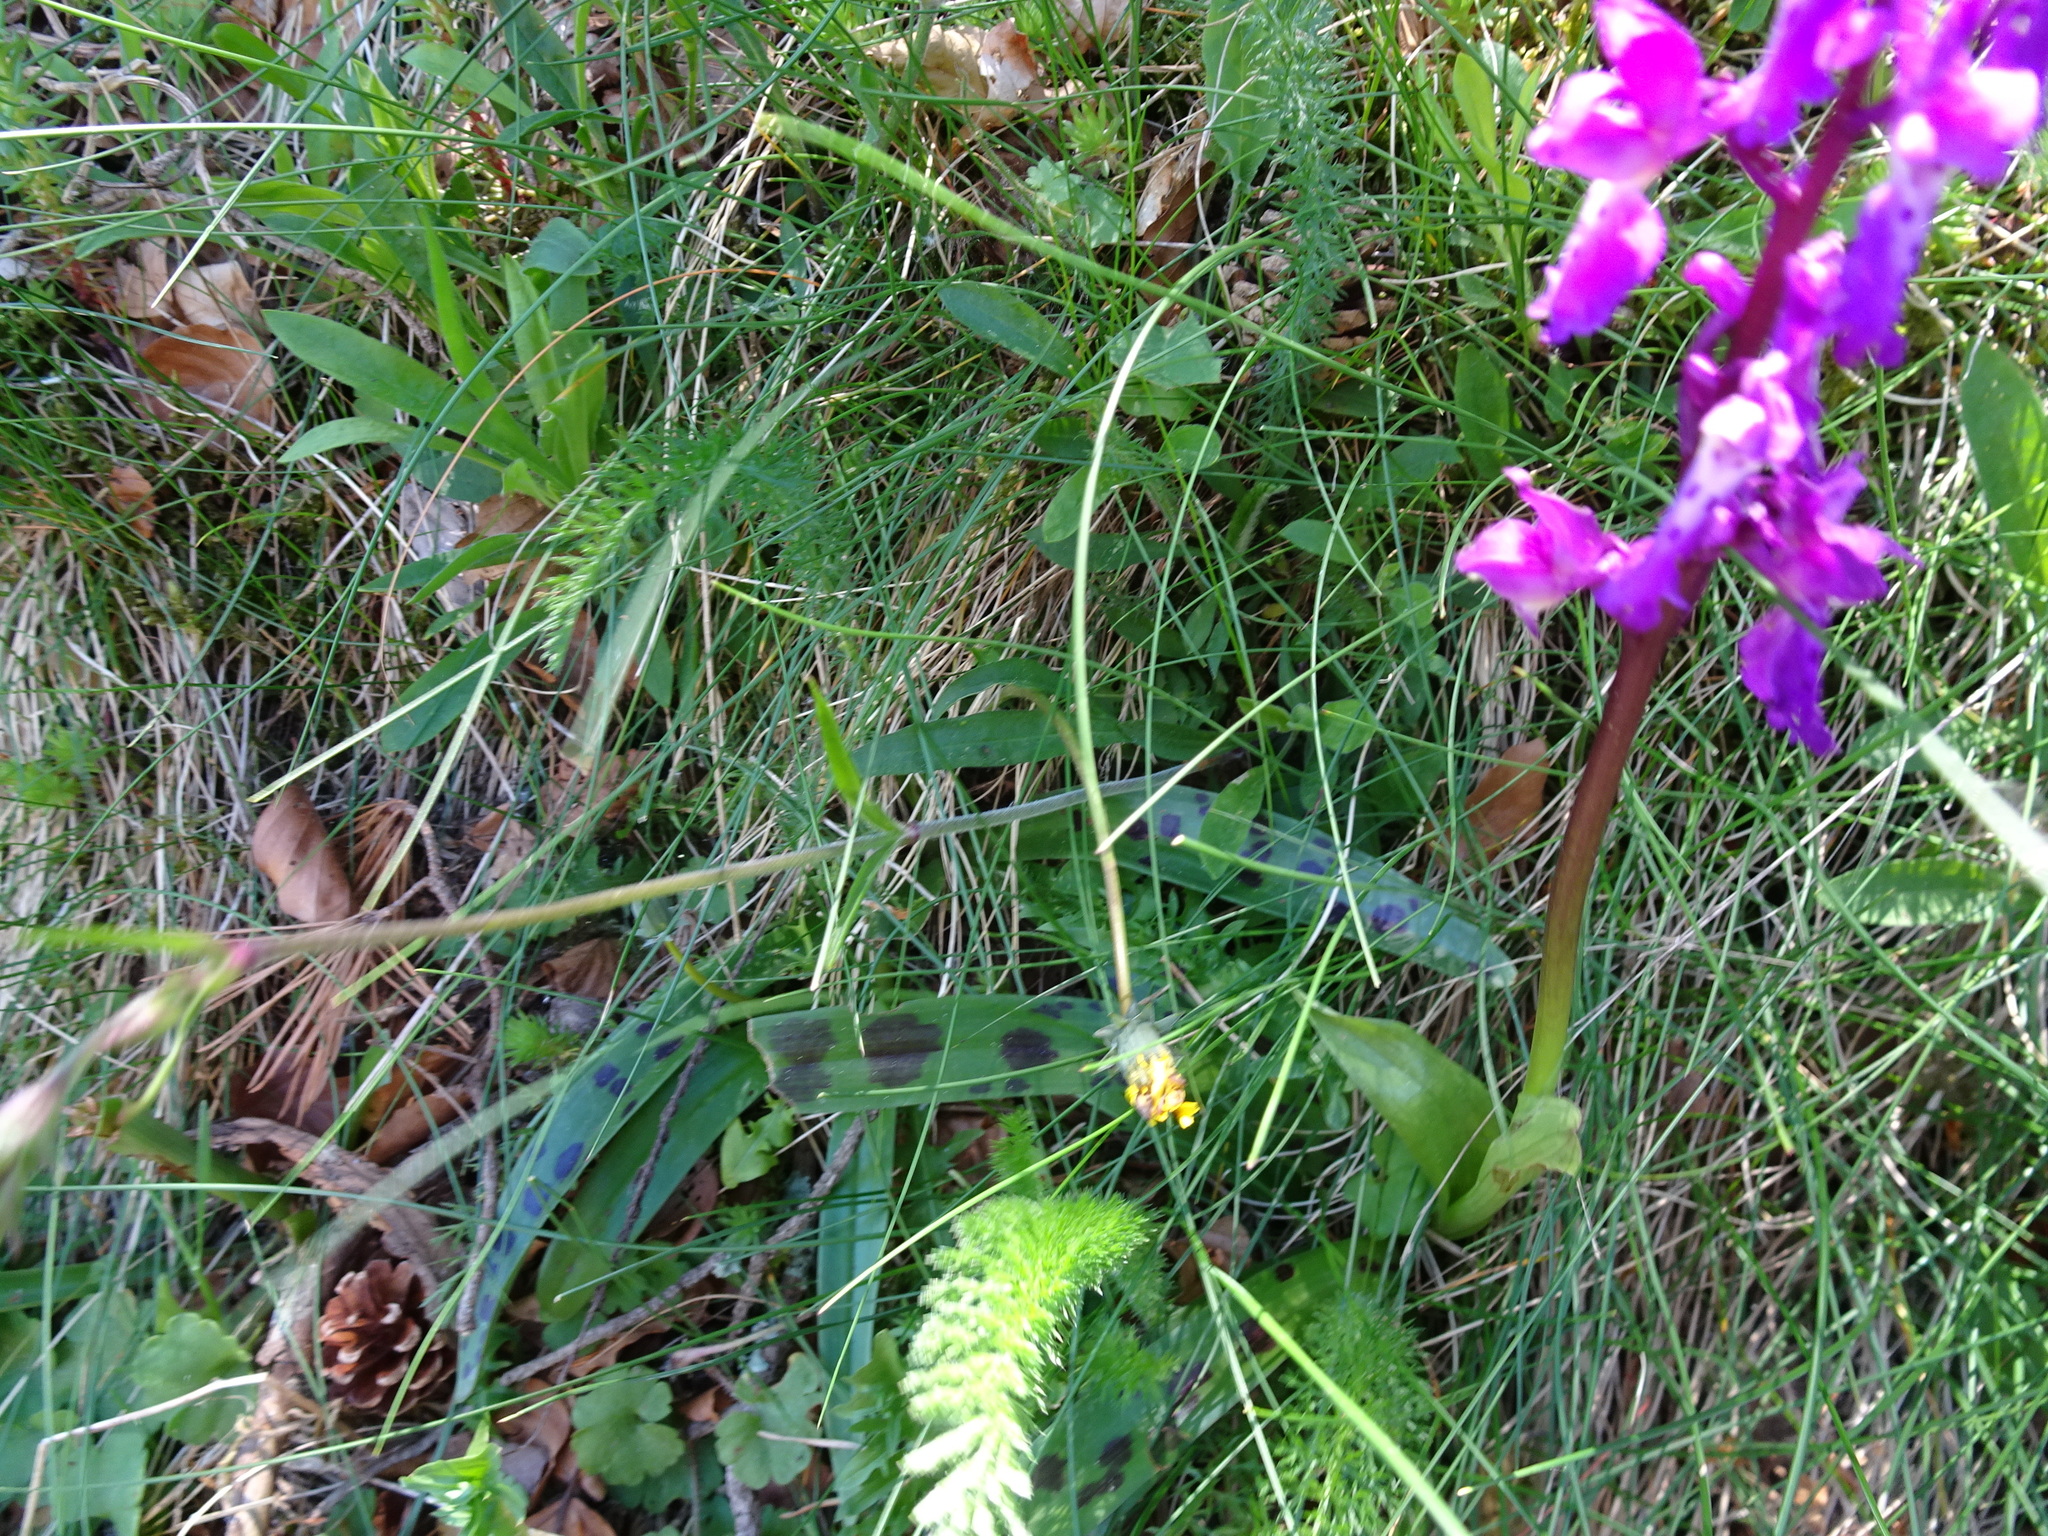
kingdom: Plantae
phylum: Tracheophyta
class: Liliopsida
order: Asparagales
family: Orchidaceae
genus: Orchis
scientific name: Orchis mascula
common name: Early-purple orchid
